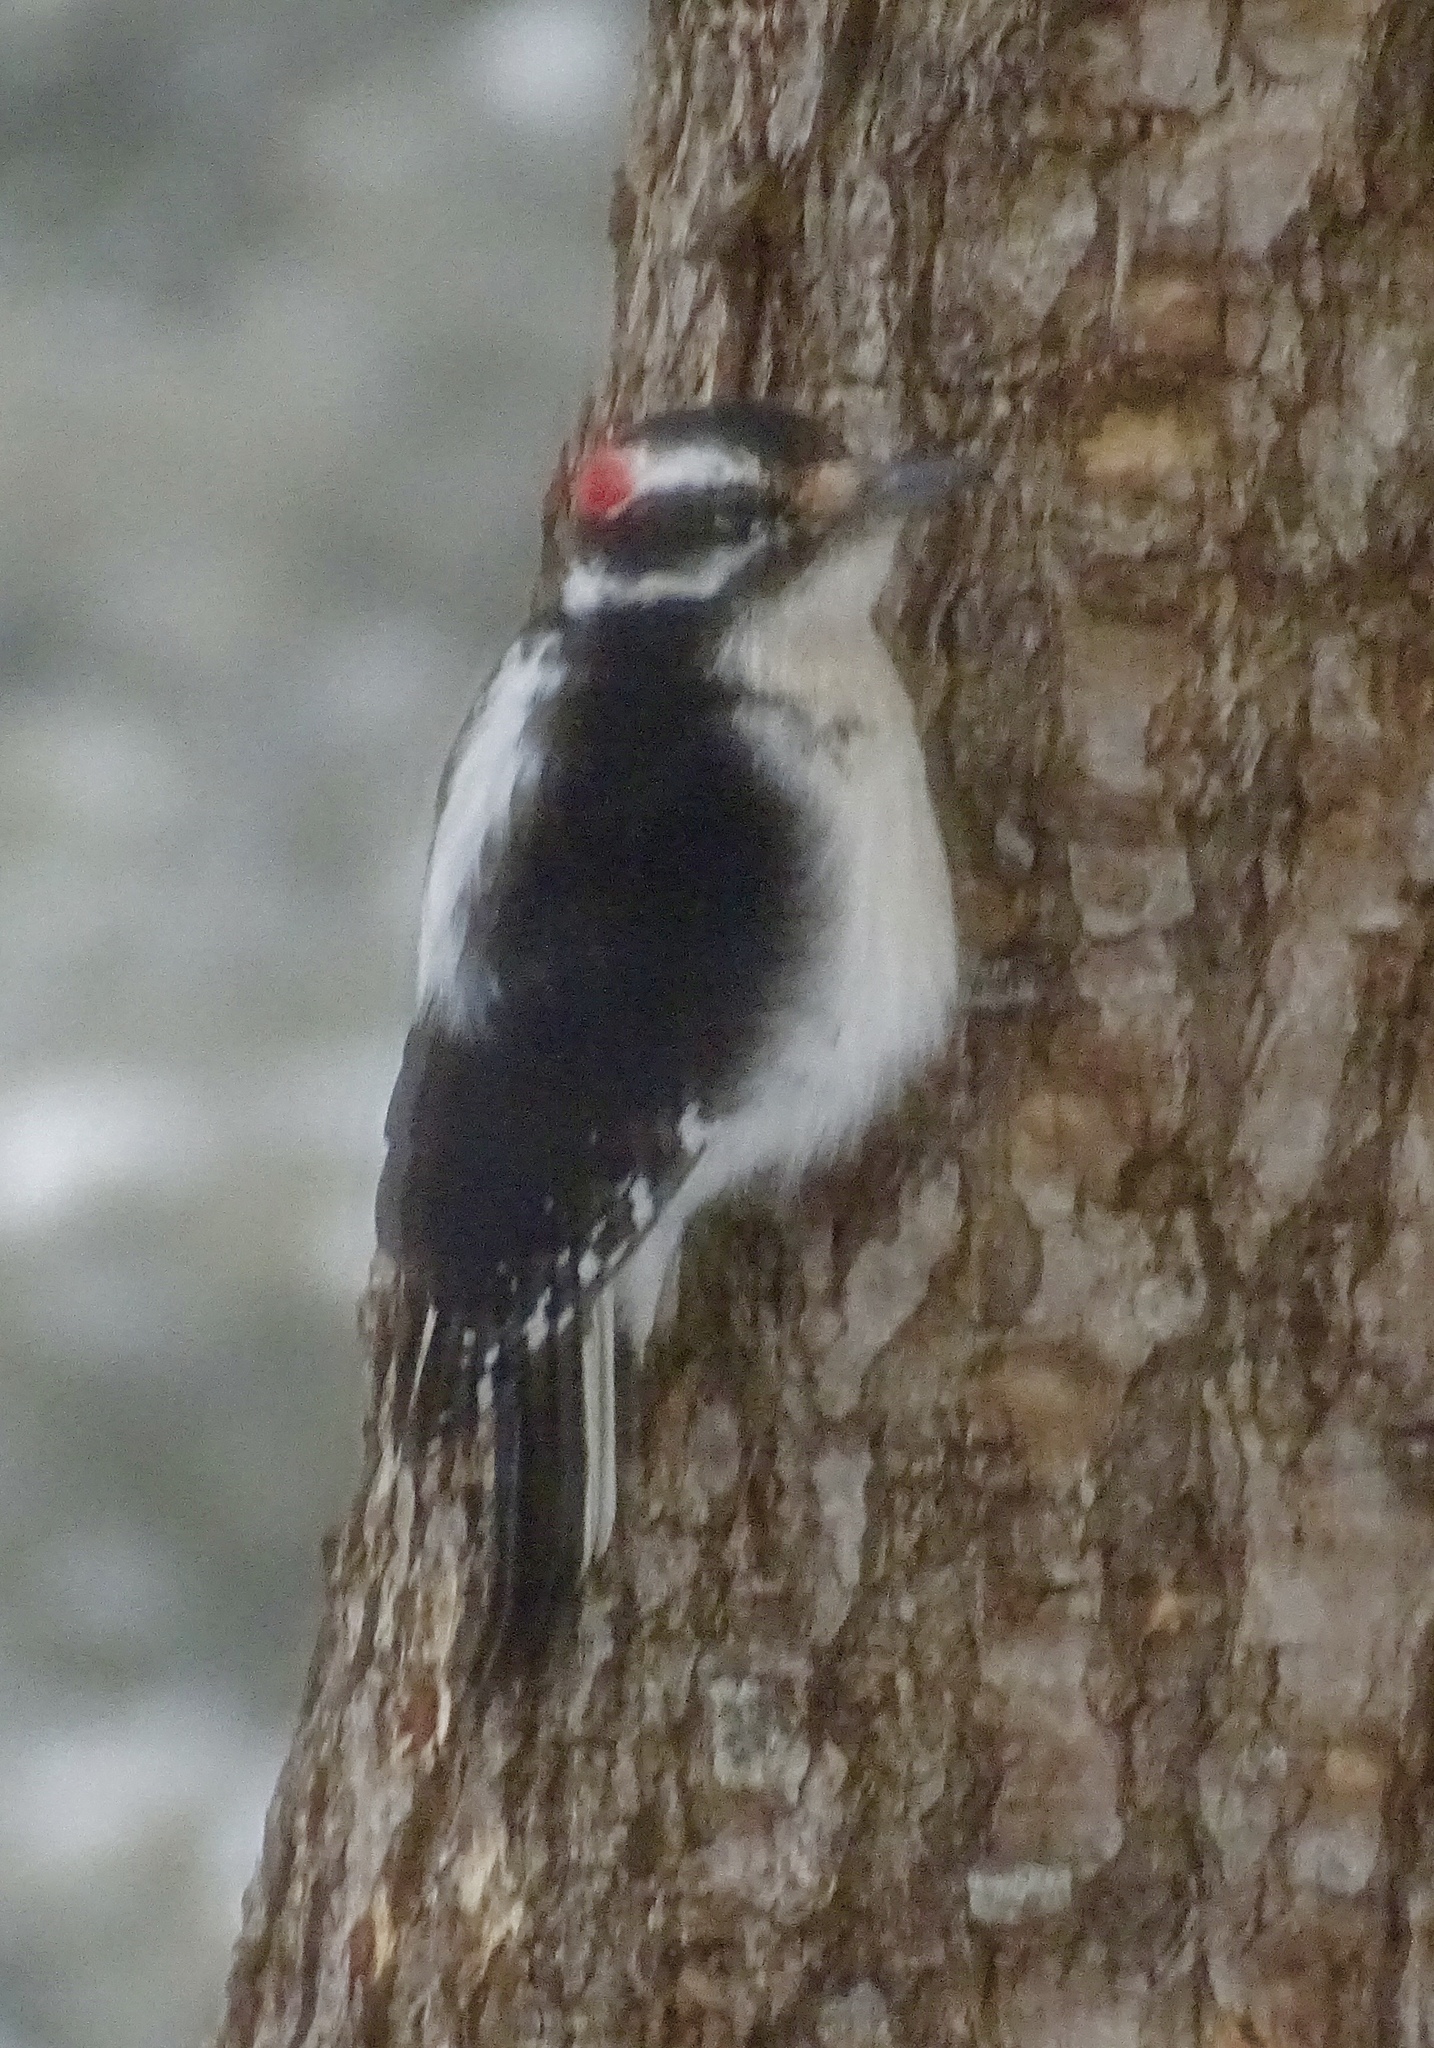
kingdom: Animalia
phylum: Chordata
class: Aves
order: Piciformes
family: Picidae
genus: Dryobates
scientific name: Dryobates pubescens
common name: Downy woodpecker
